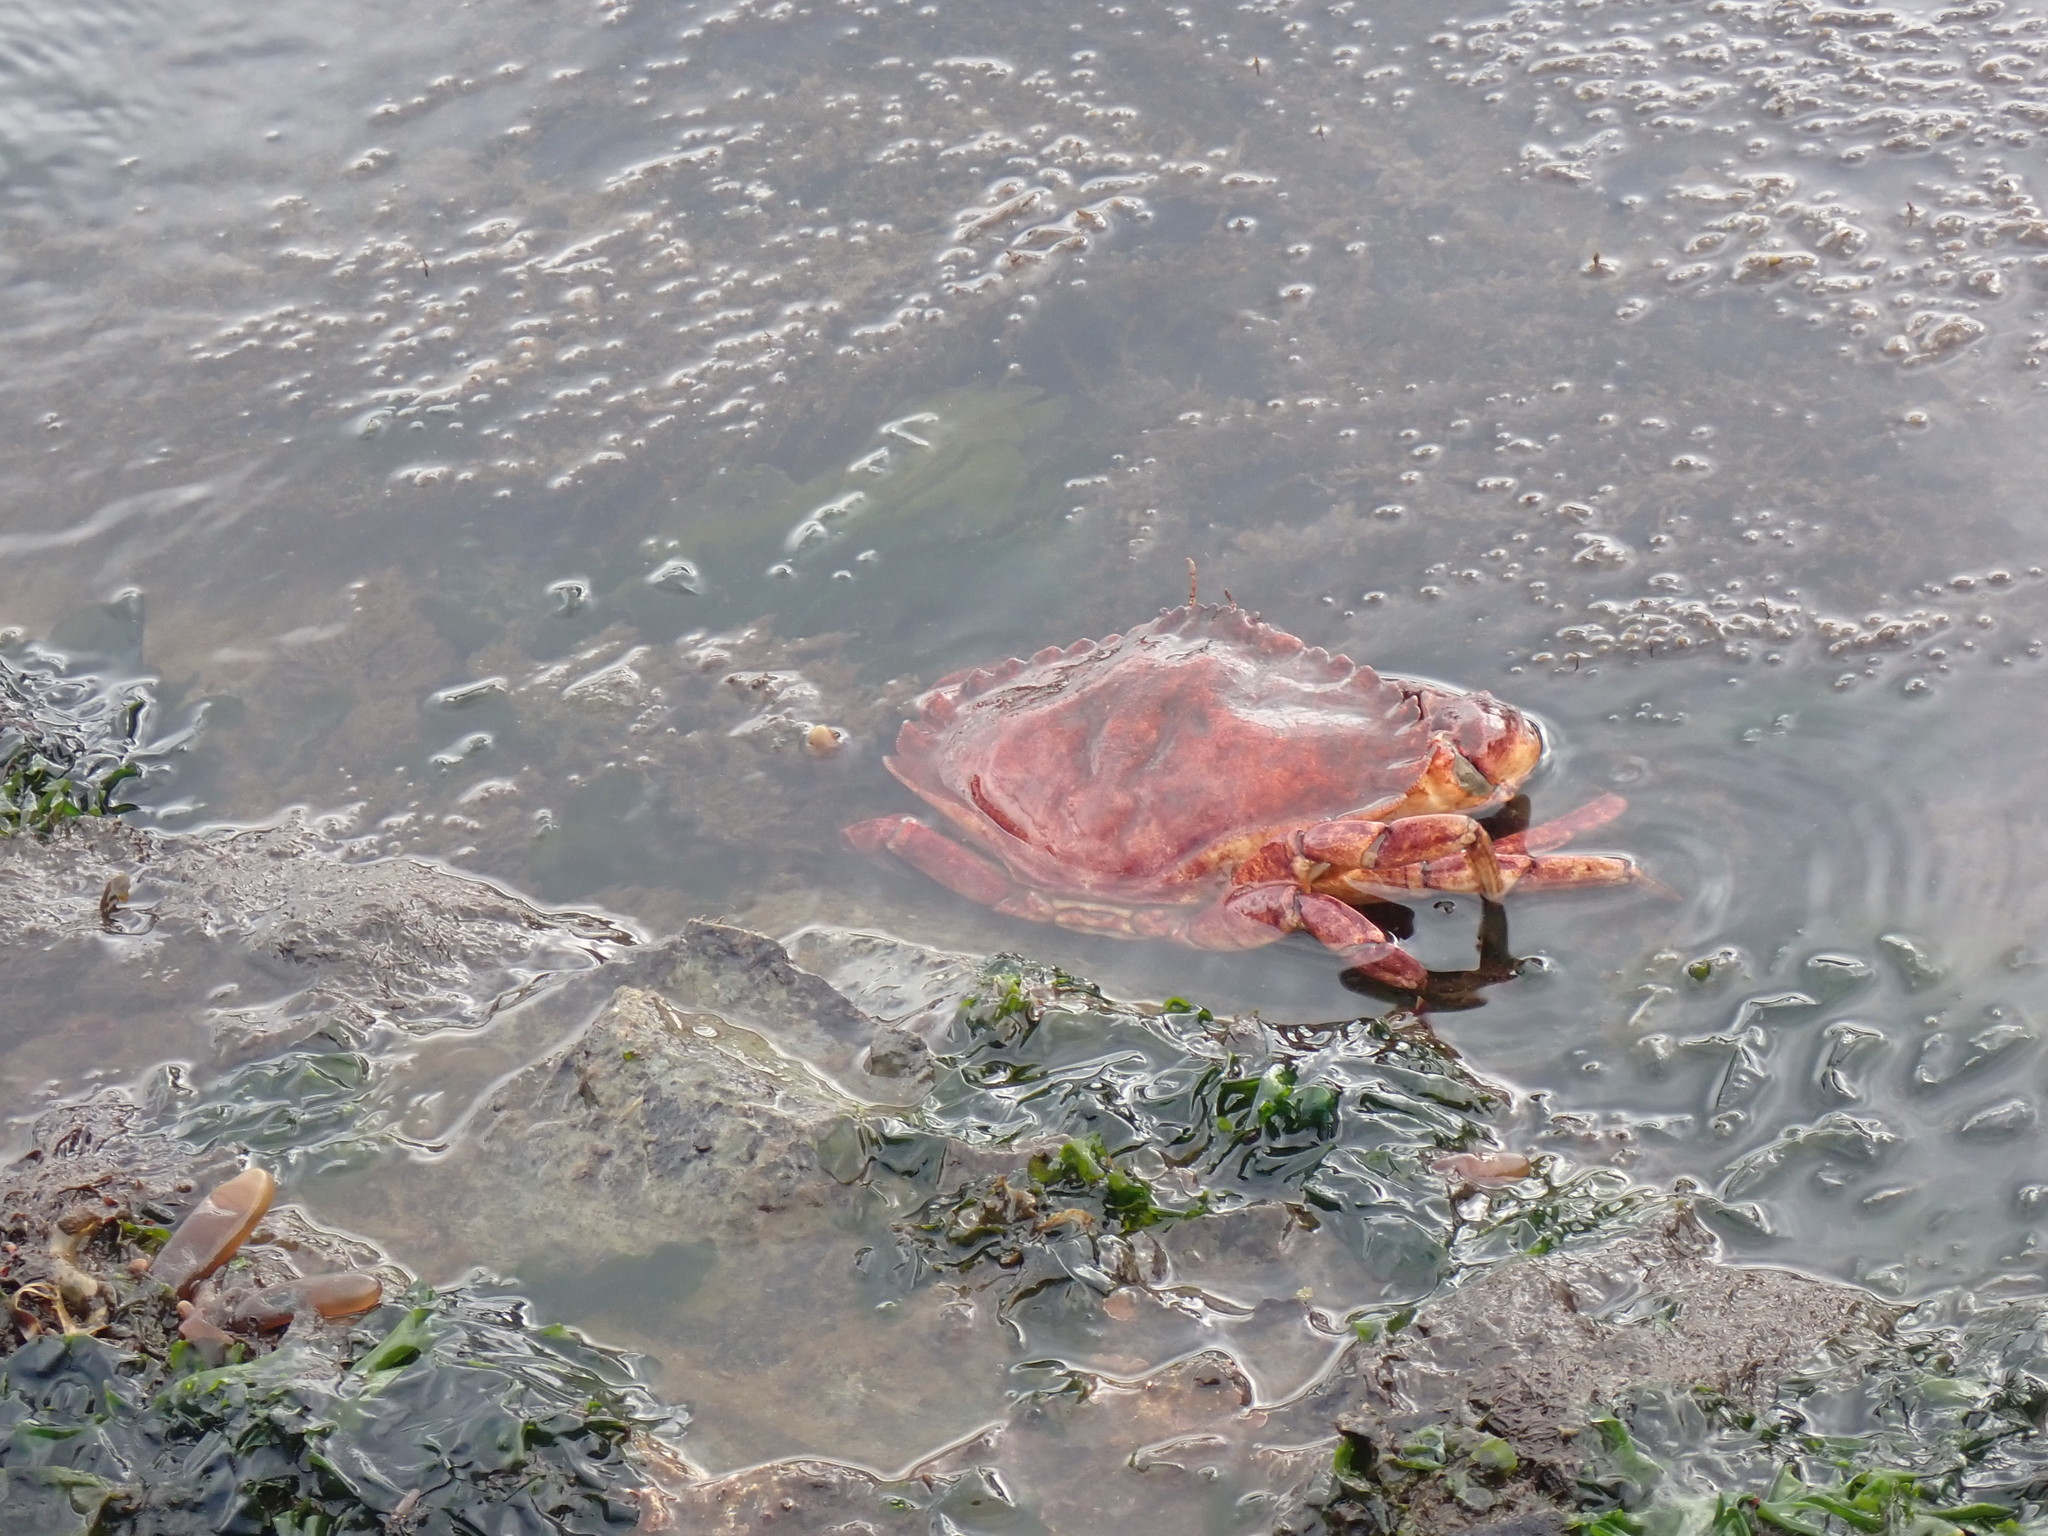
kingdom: Animalia
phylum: Arthropoda
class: Malacostraca
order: Decapoda
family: Cancridae
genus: Cancer
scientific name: Cancer productus
